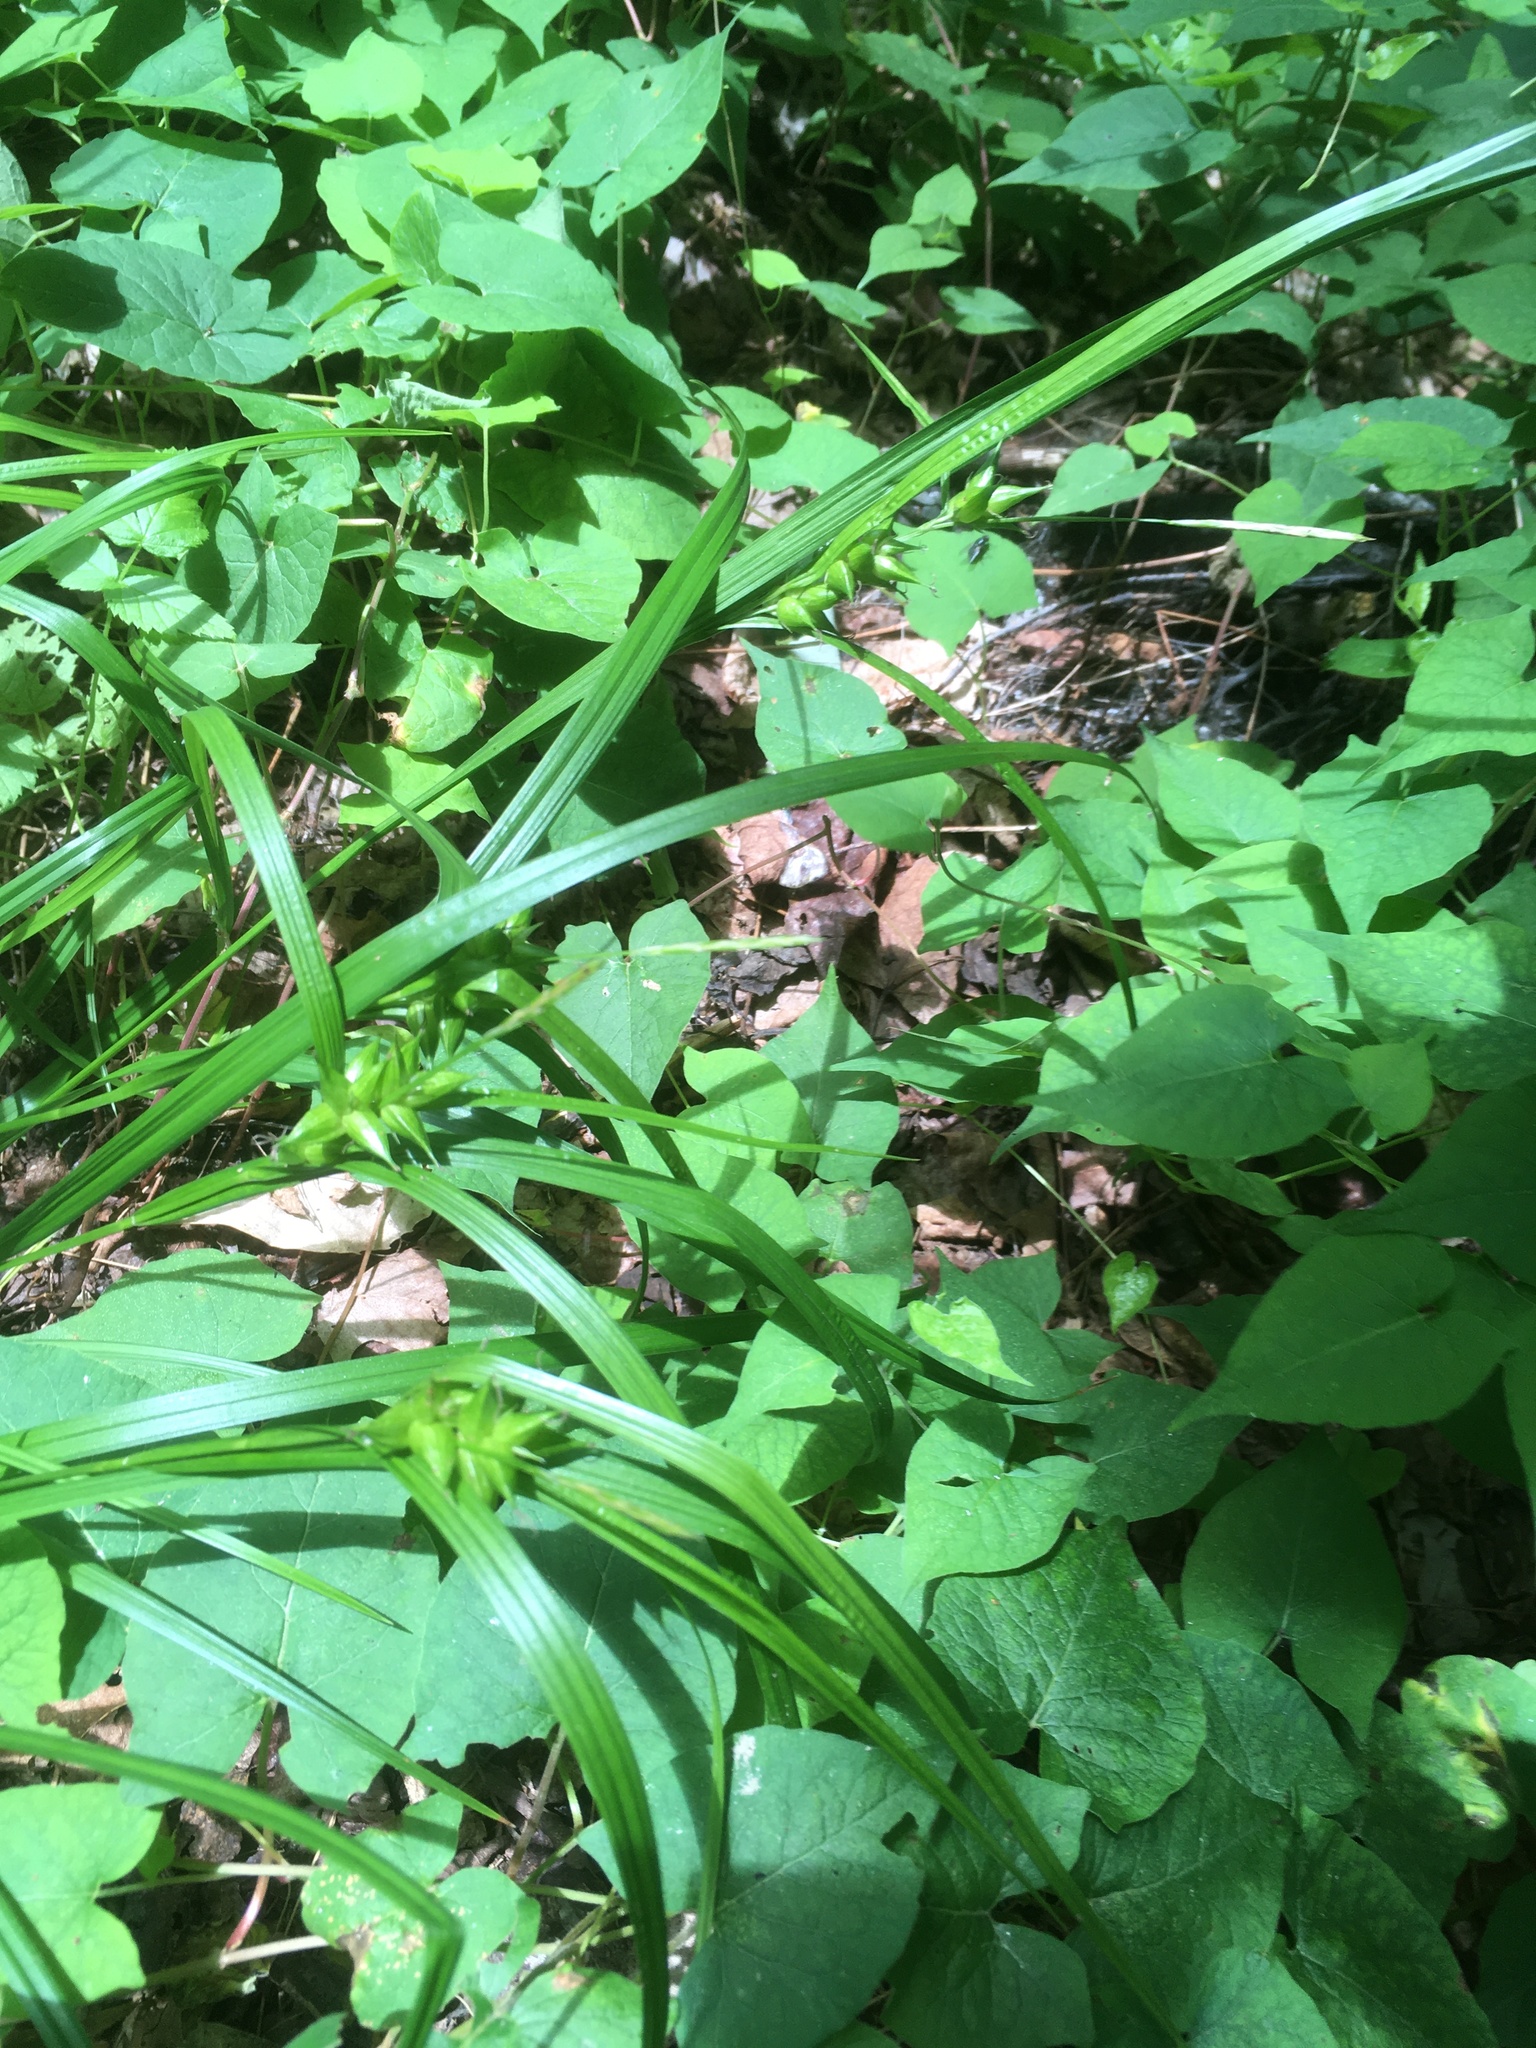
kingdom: Plantae
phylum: Tracheophyta
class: Liliopsida
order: Poales
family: Cyperaceae
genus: Carex
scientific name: Carex intumescens
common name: Greater bladder sedge
